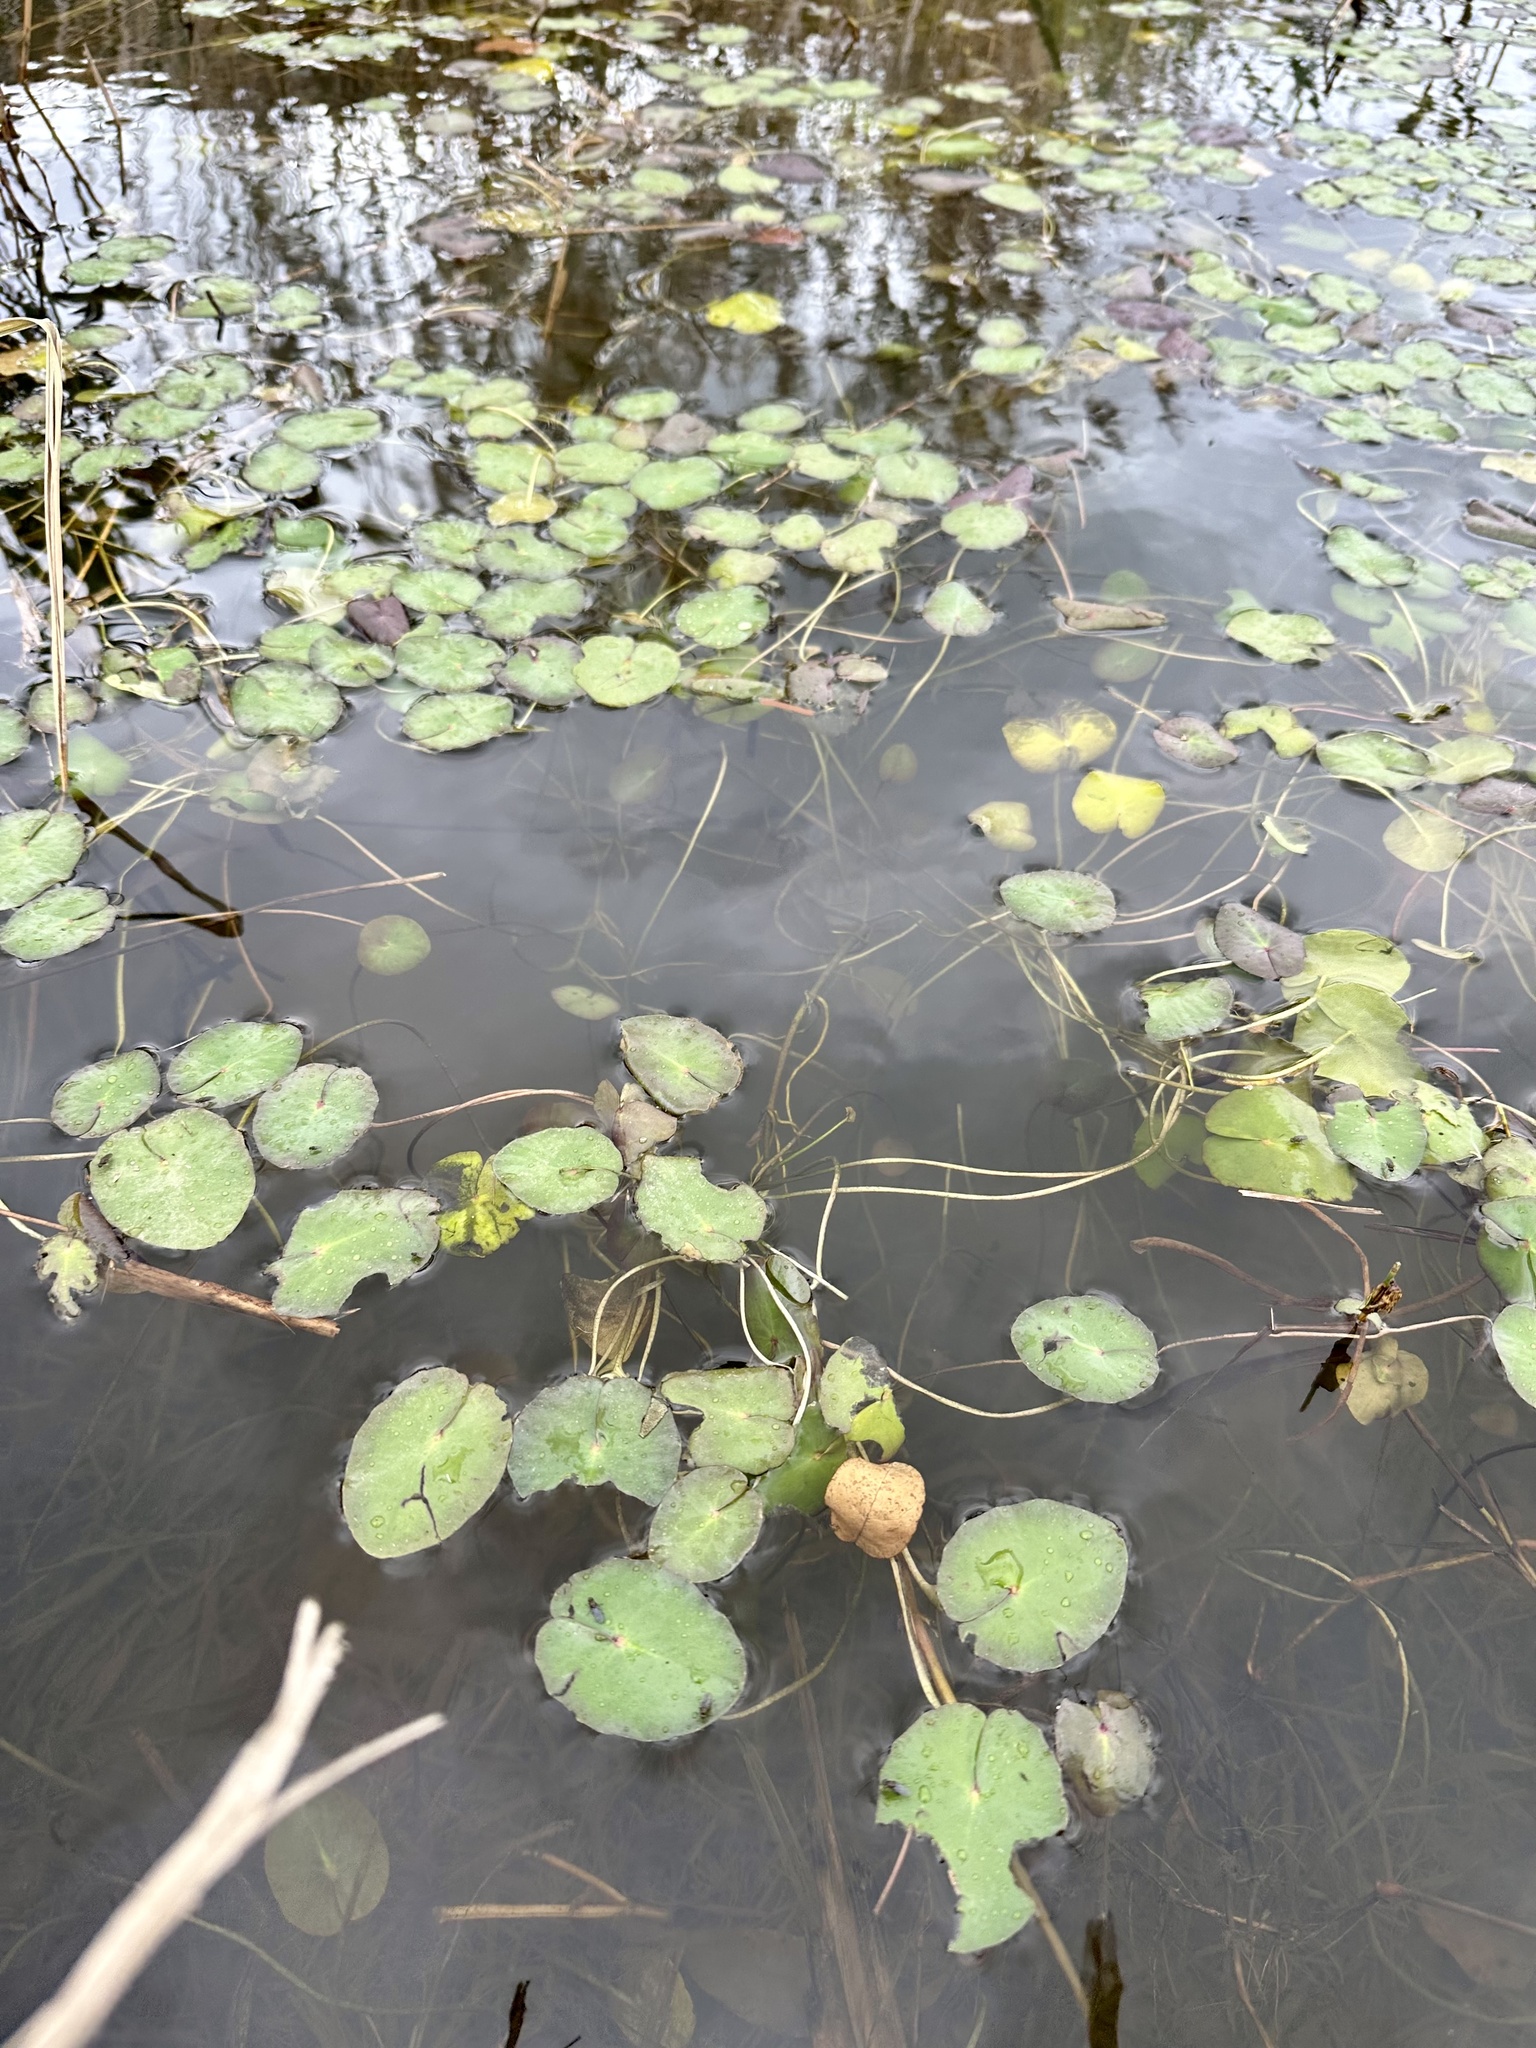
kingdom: Plantae
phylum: Tracheophyta
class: Magnoliopsida
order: Asterales
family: Menyanthaceae
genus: Nymphoides
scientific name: Nymphoides peltata
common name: Fringed water-lily
